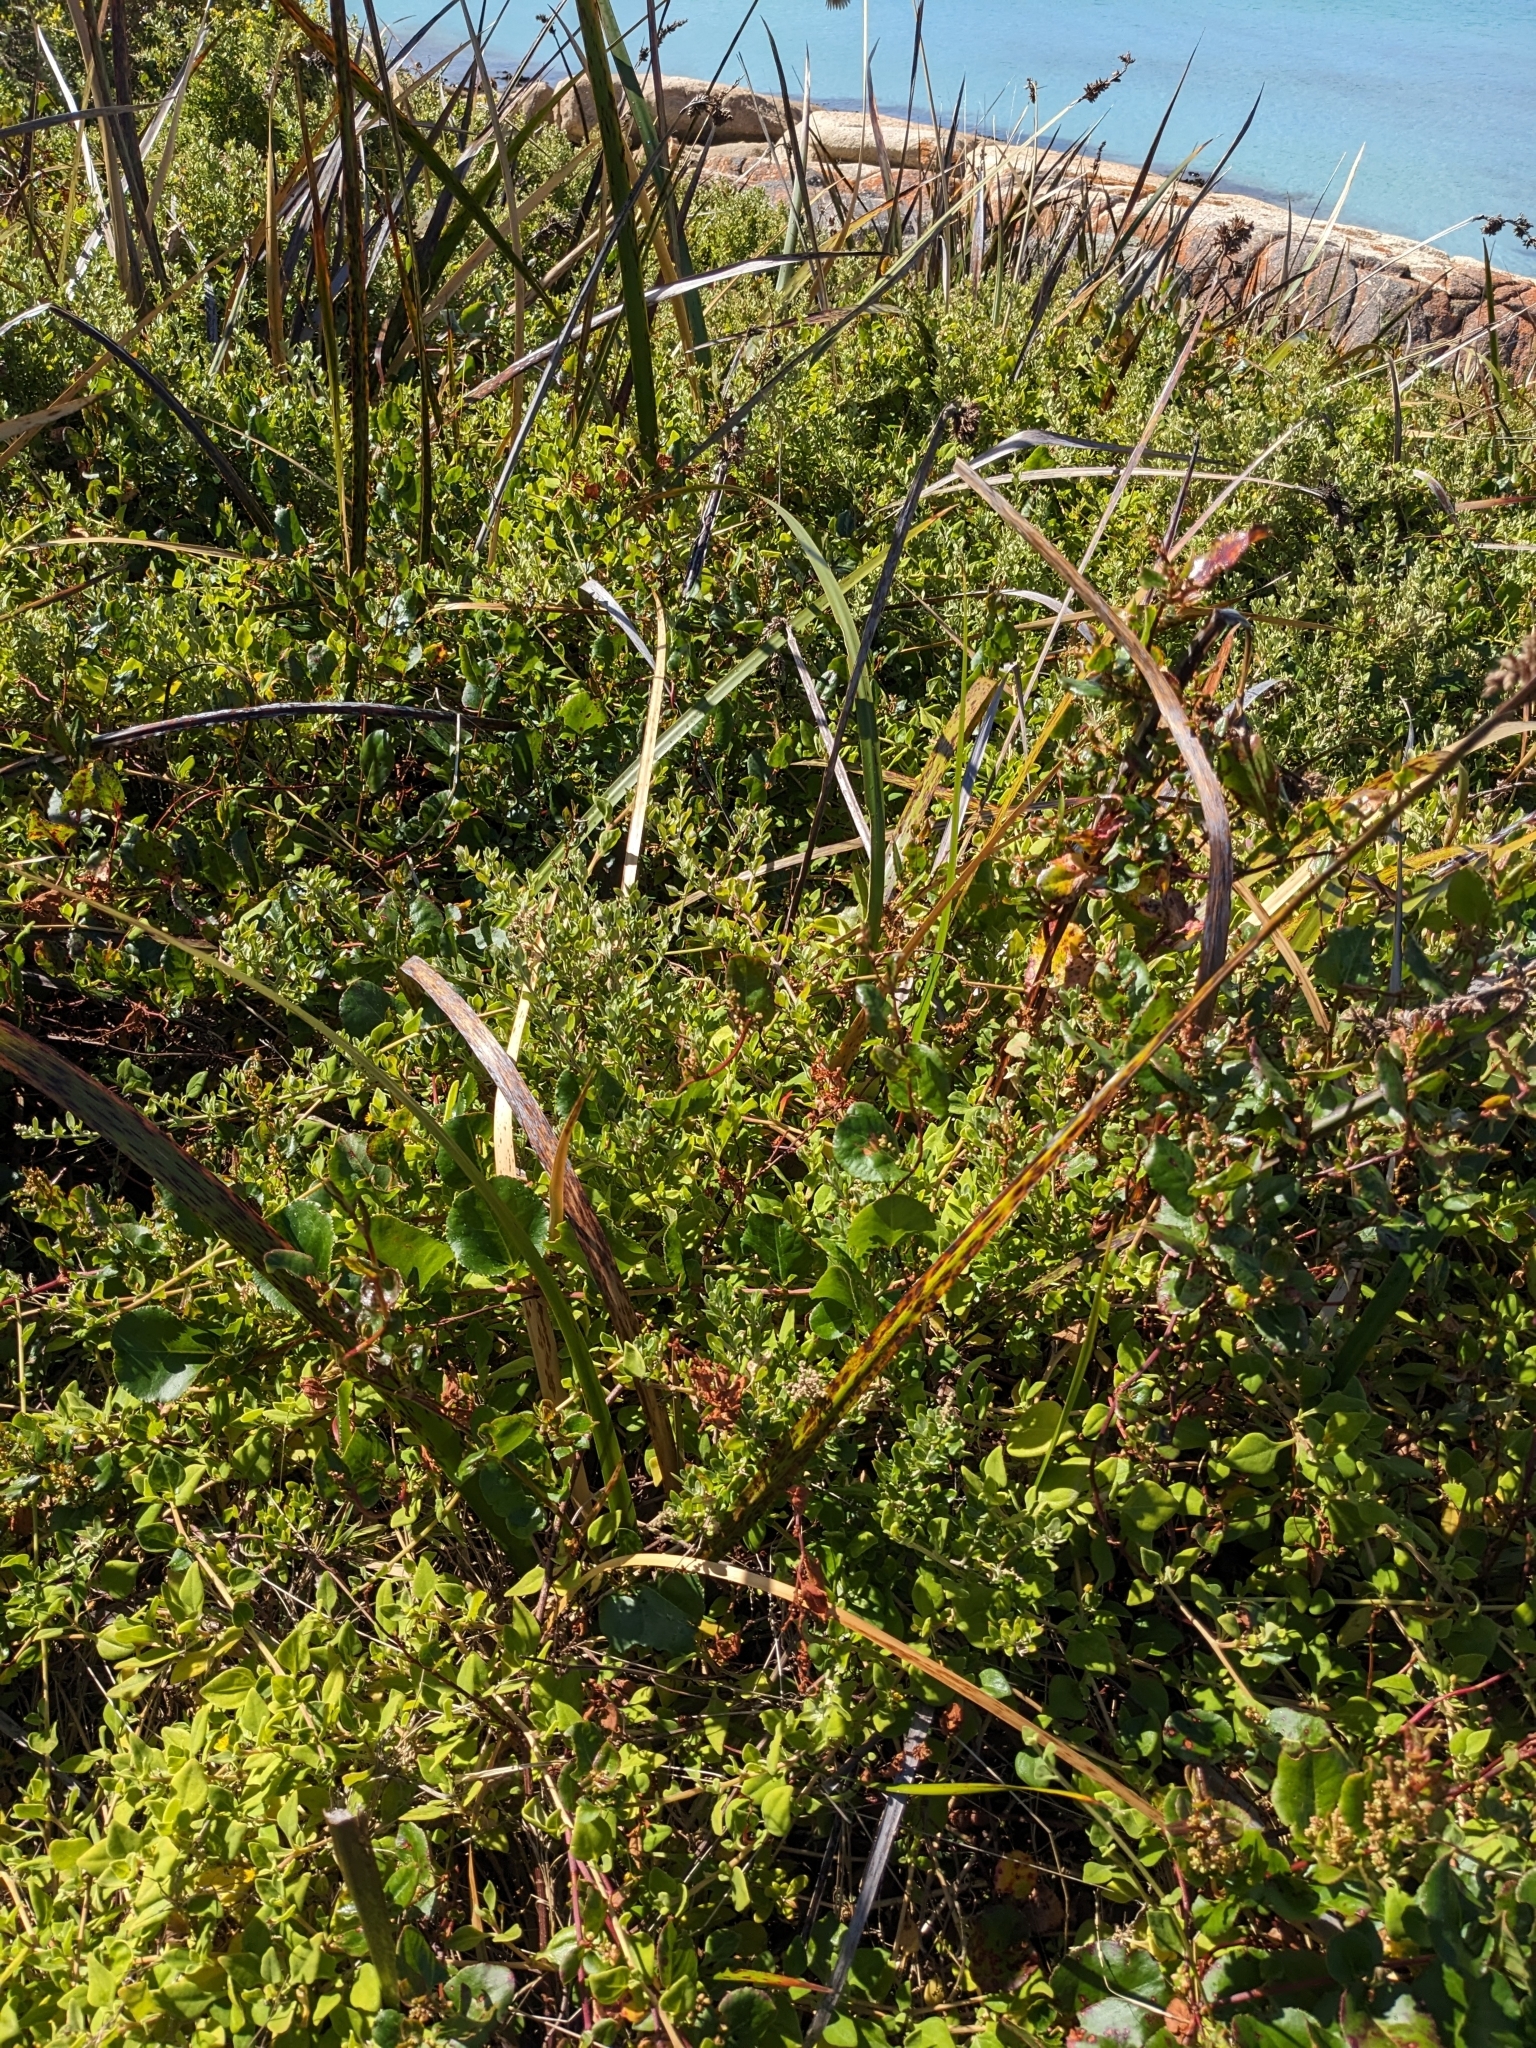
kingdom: Plantae
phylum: Tracheophyta
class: Liliopsida
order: Poales
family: Cyperaceae
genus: Lepidosperma
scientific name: Lepidosperma gladiatum
